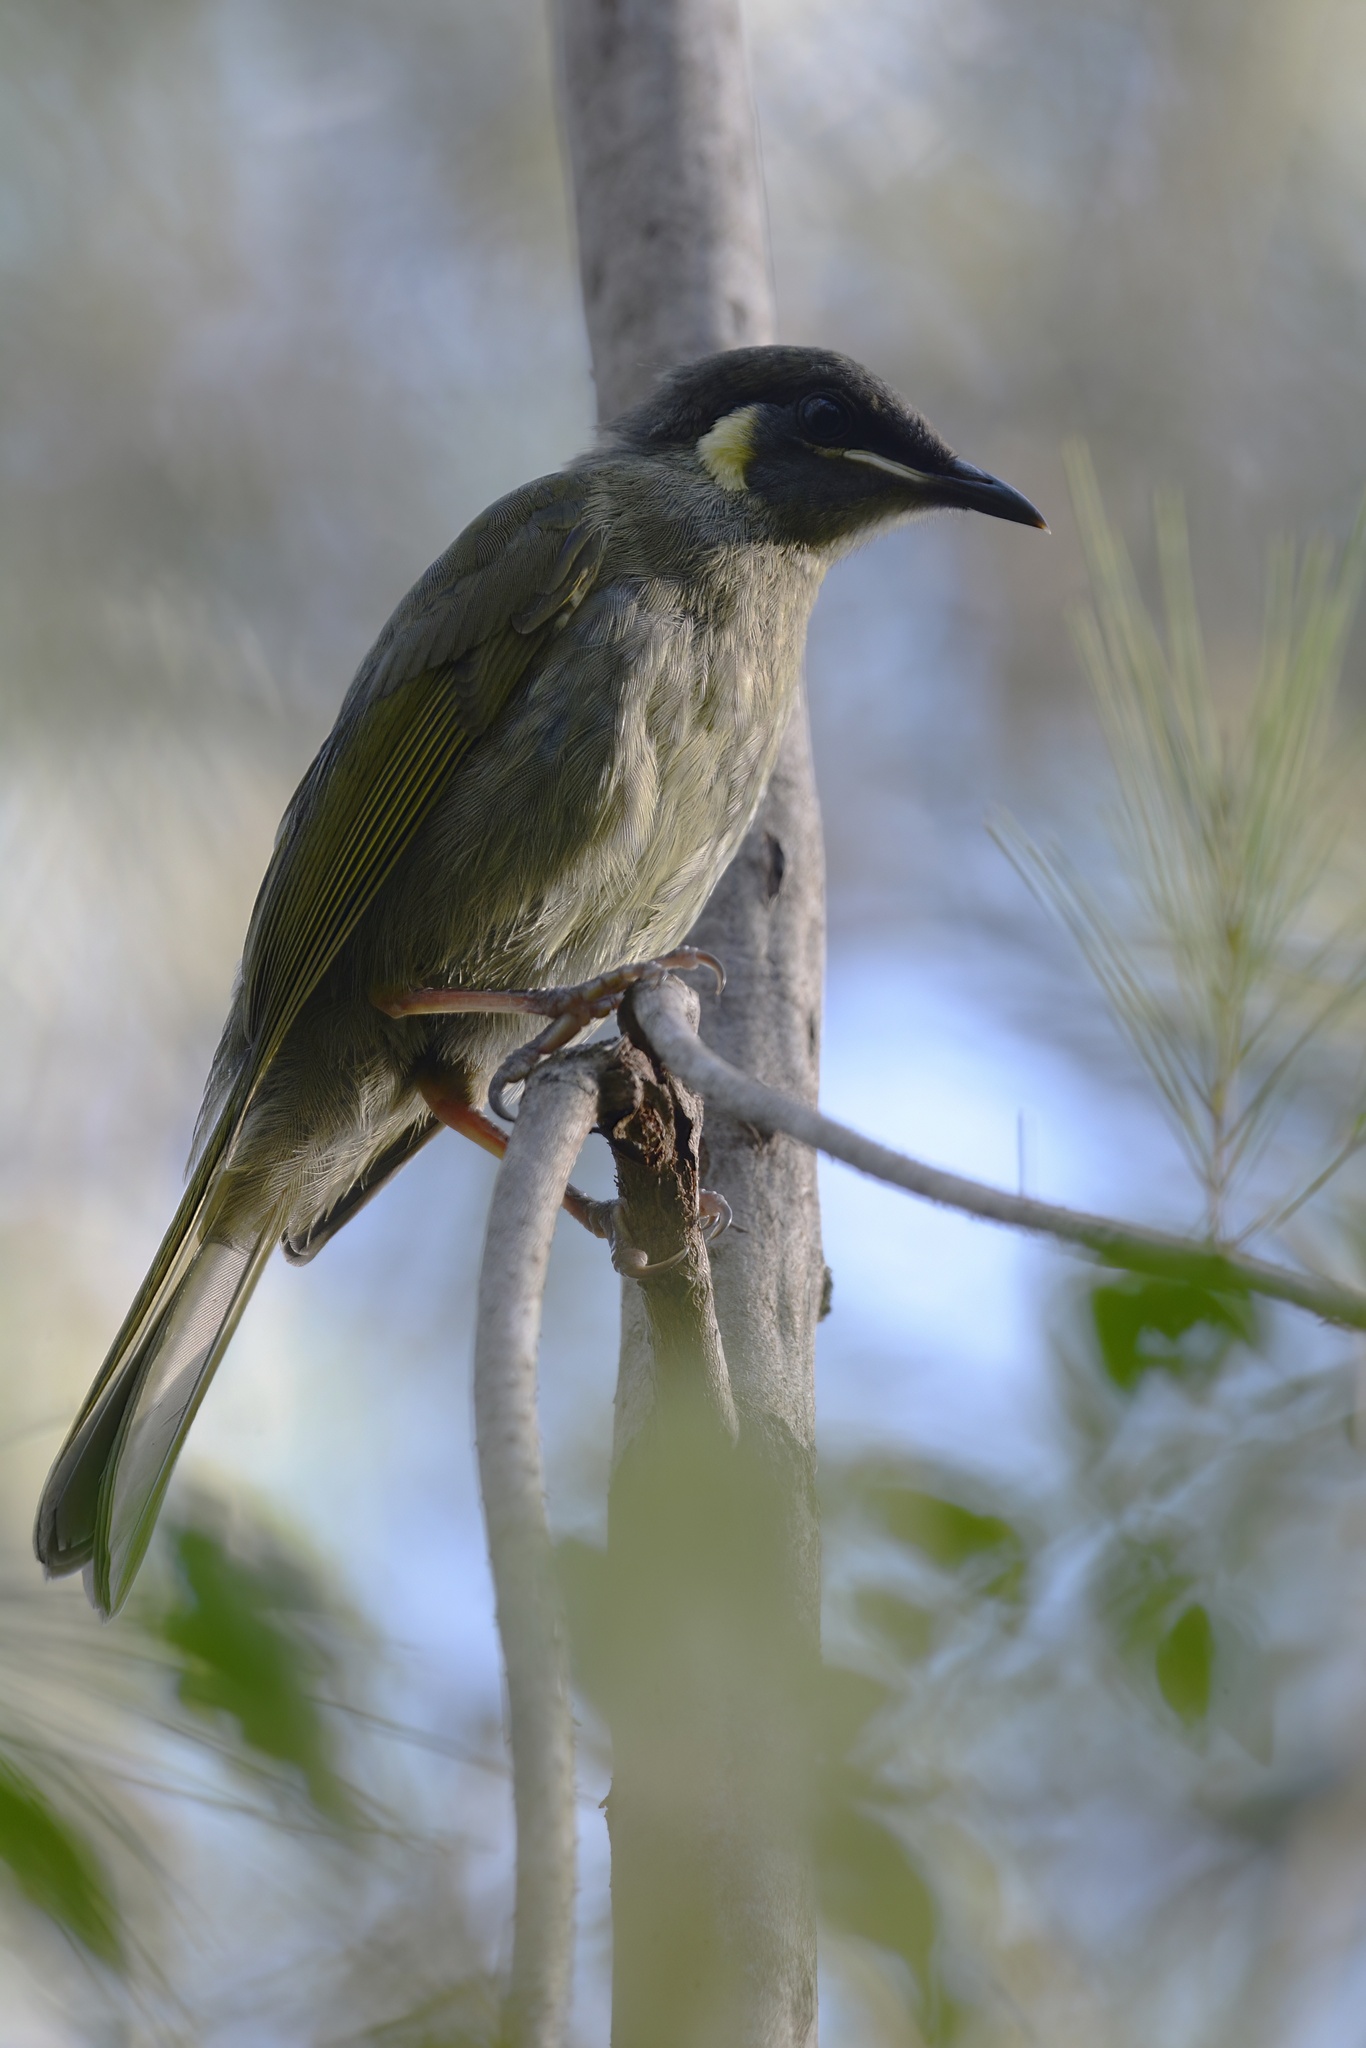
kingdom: Animalia
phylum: Chordata
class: Aves
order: Passeriformes
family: Meliphagidae
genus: Meliphaga
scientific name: Meliphaga lewinii
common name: Lewin's honeyeater
